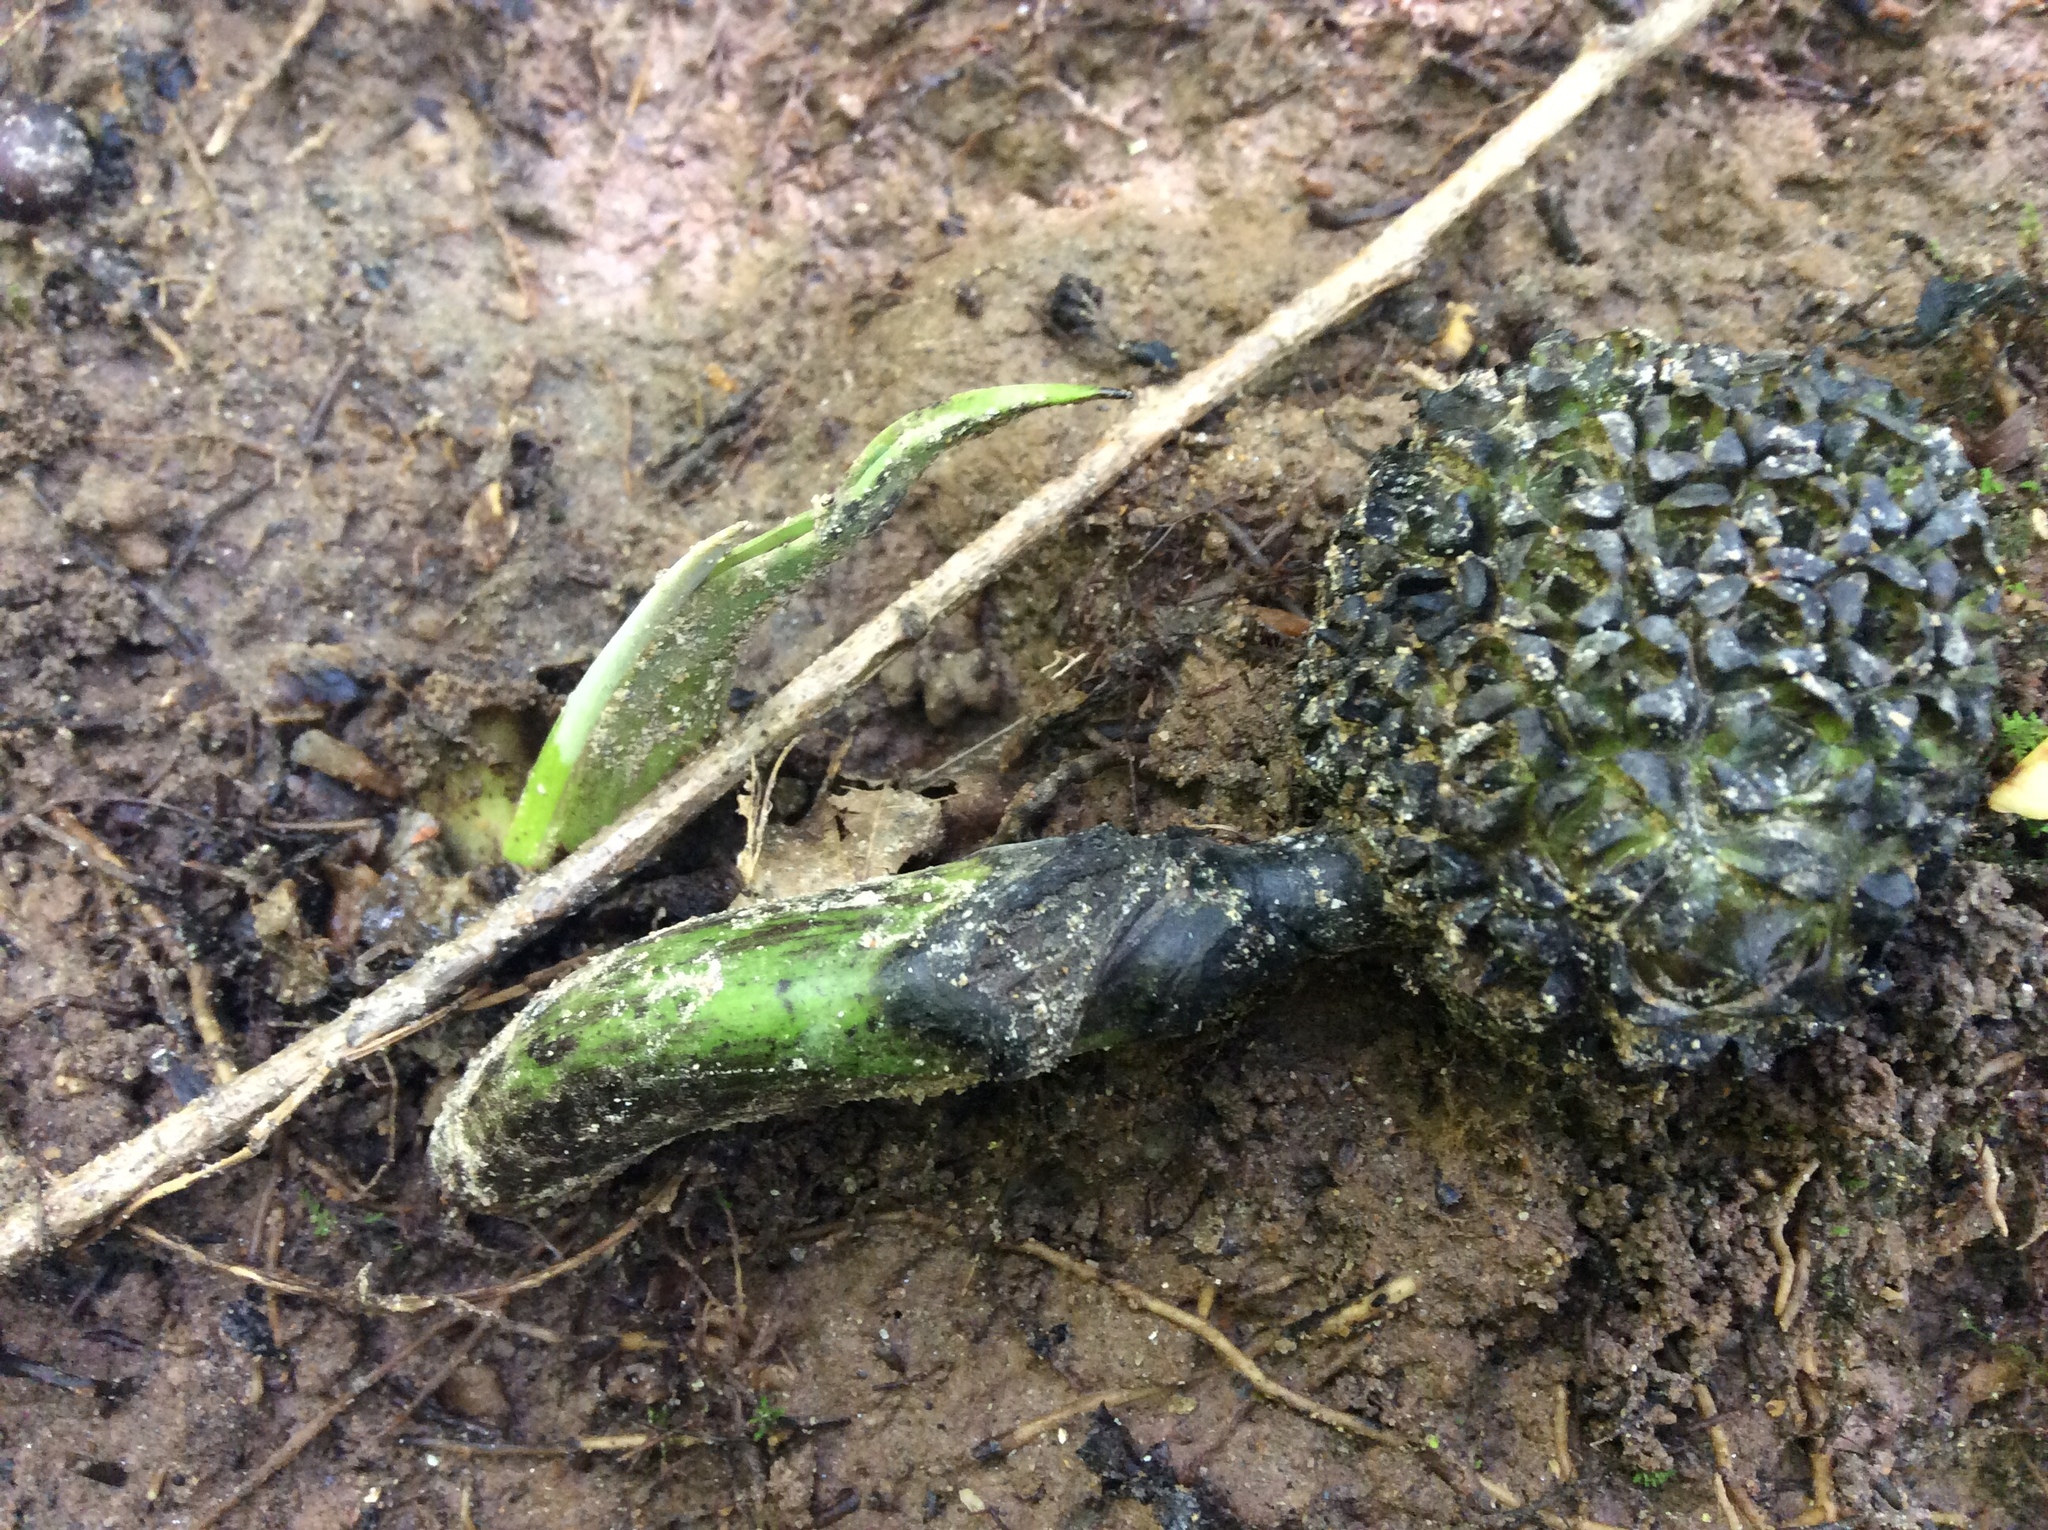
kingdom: Plantae
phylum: Tracheophyta
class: Liliopsida
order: Alismatales
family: Araceae
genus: Symplocarpus
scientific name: Symplocarpus foetidus
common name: Eastern skunk cabbage
